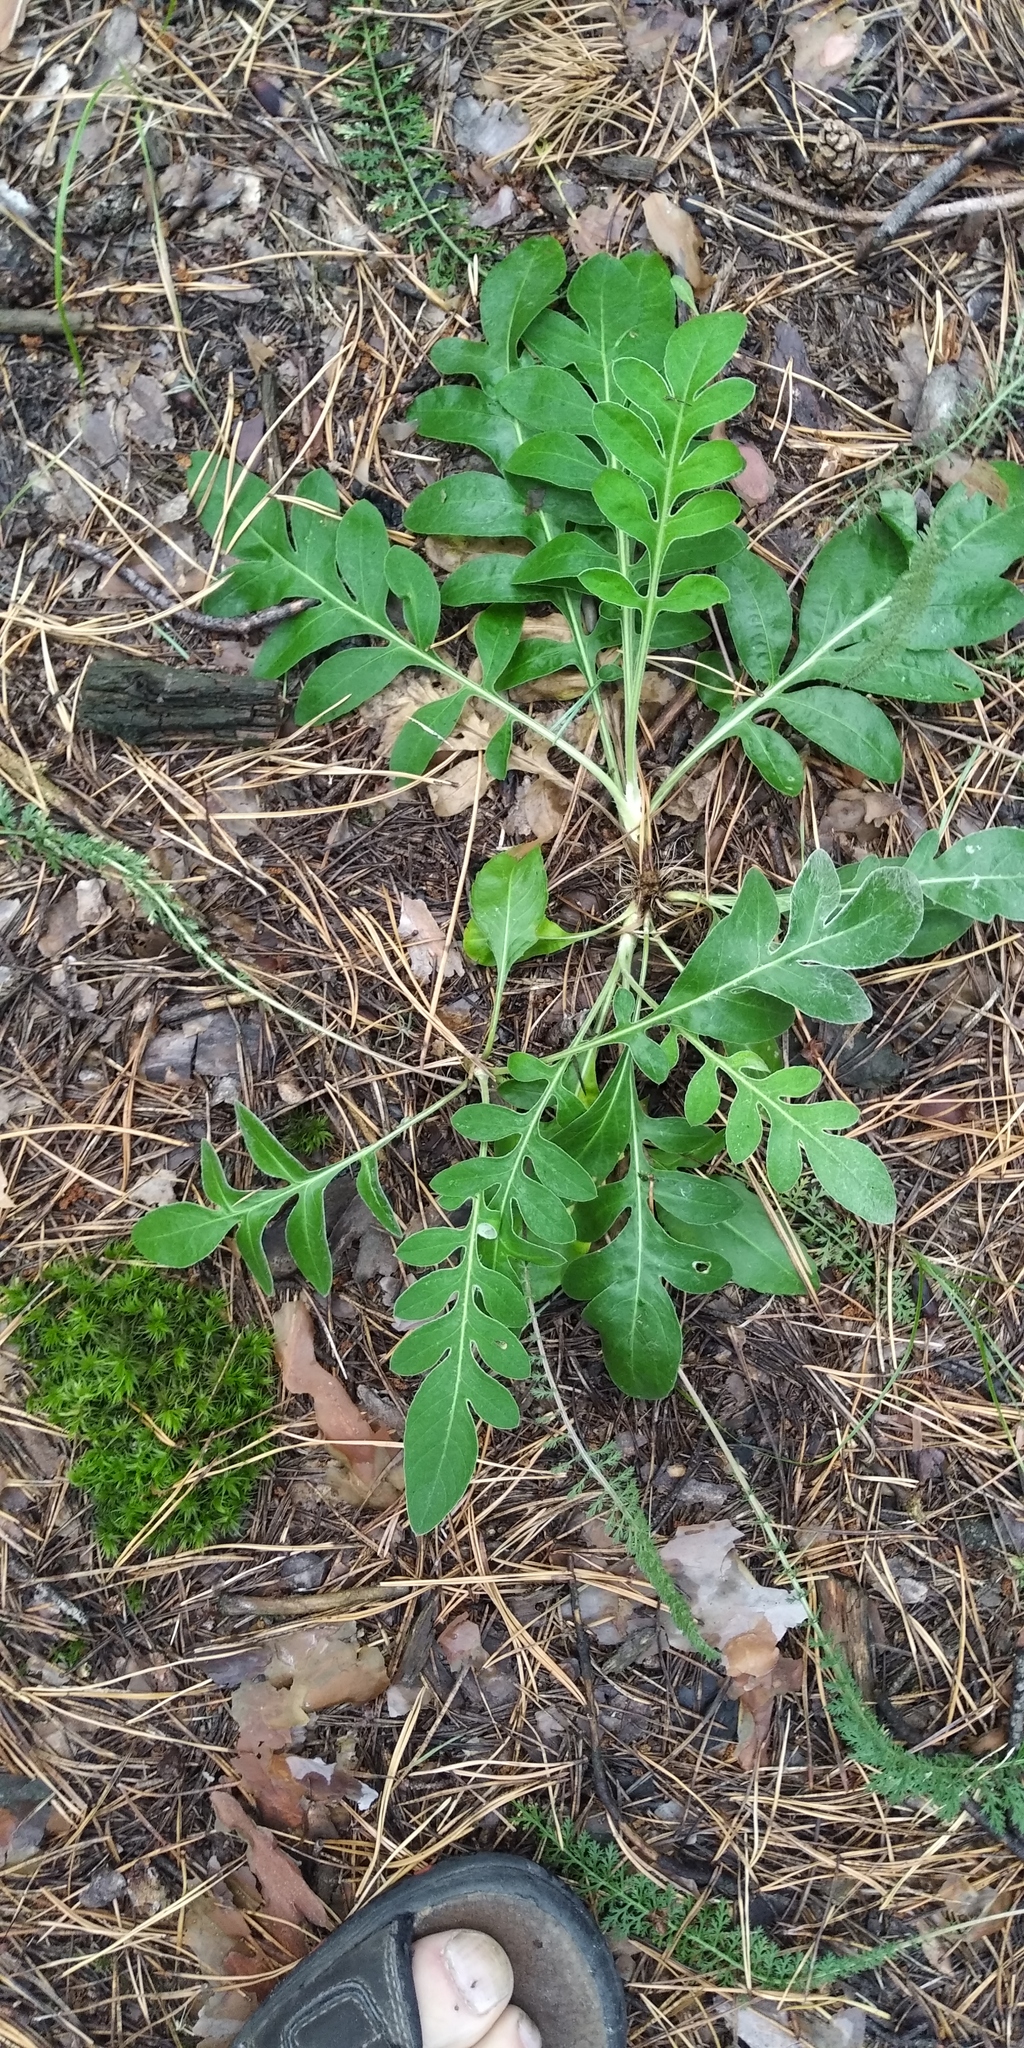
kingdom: Plantae
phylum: Tracheophyta
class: Magnoliopsida
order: Asterales
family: Asteraceae
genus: Psephellus
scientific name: Psephellus sumensis
